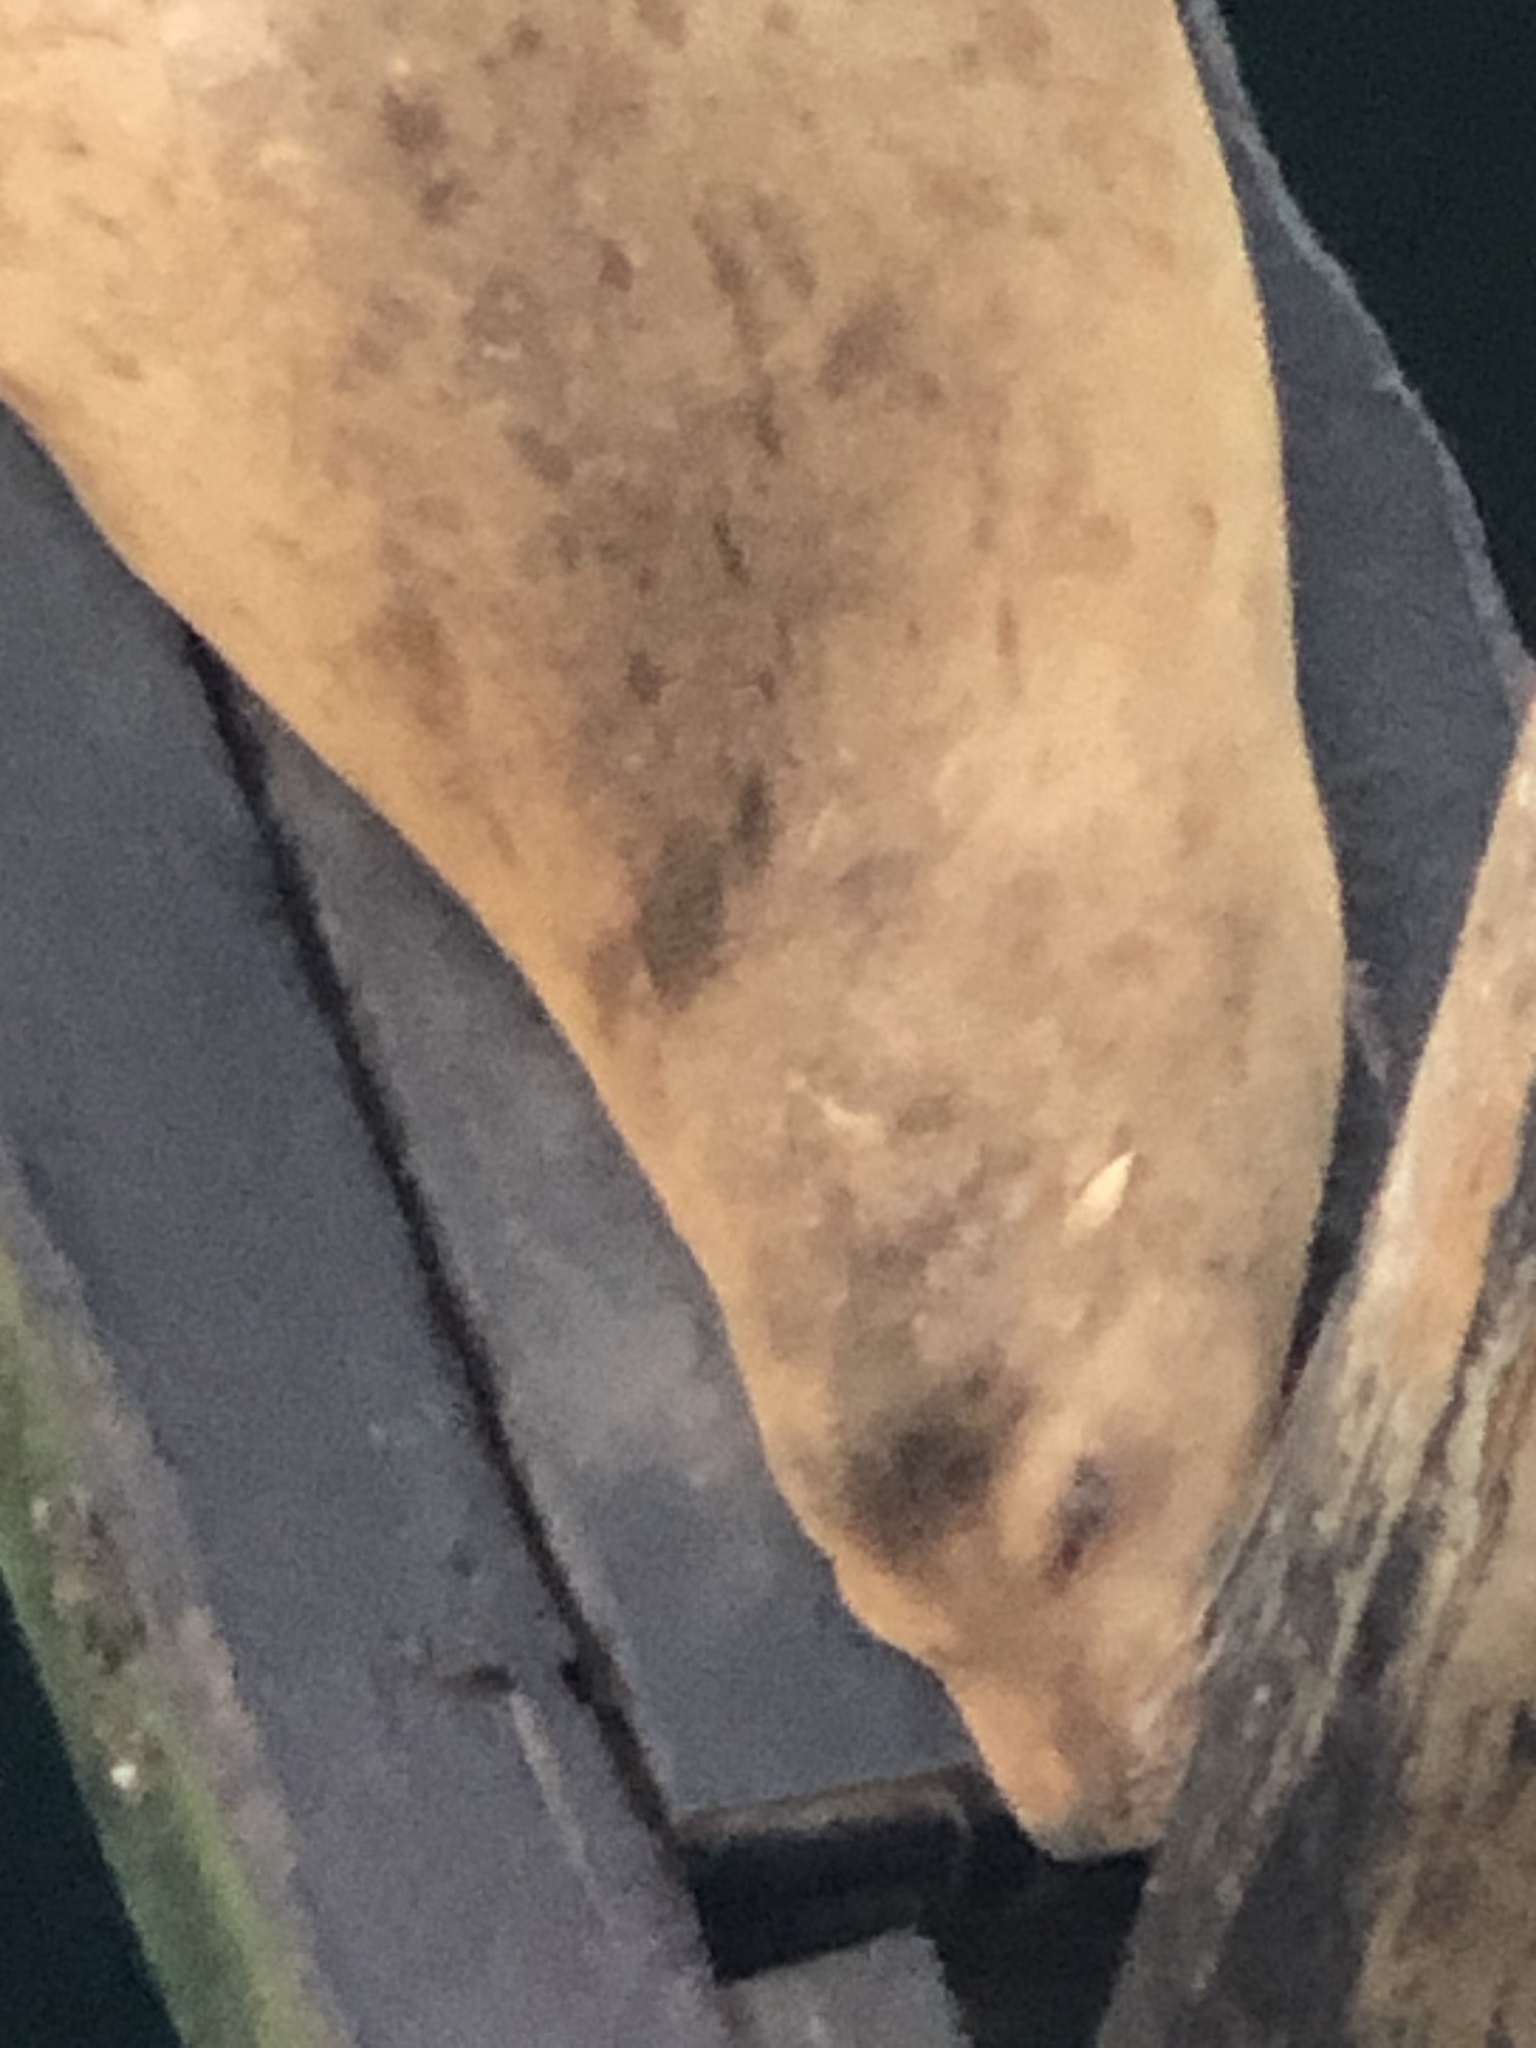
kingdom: Animalia
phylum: Chordata
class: Mammalia
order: Carnivora
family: Otariidae
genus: Zalophus
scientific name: Zalophus californianus
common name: California sea lion
